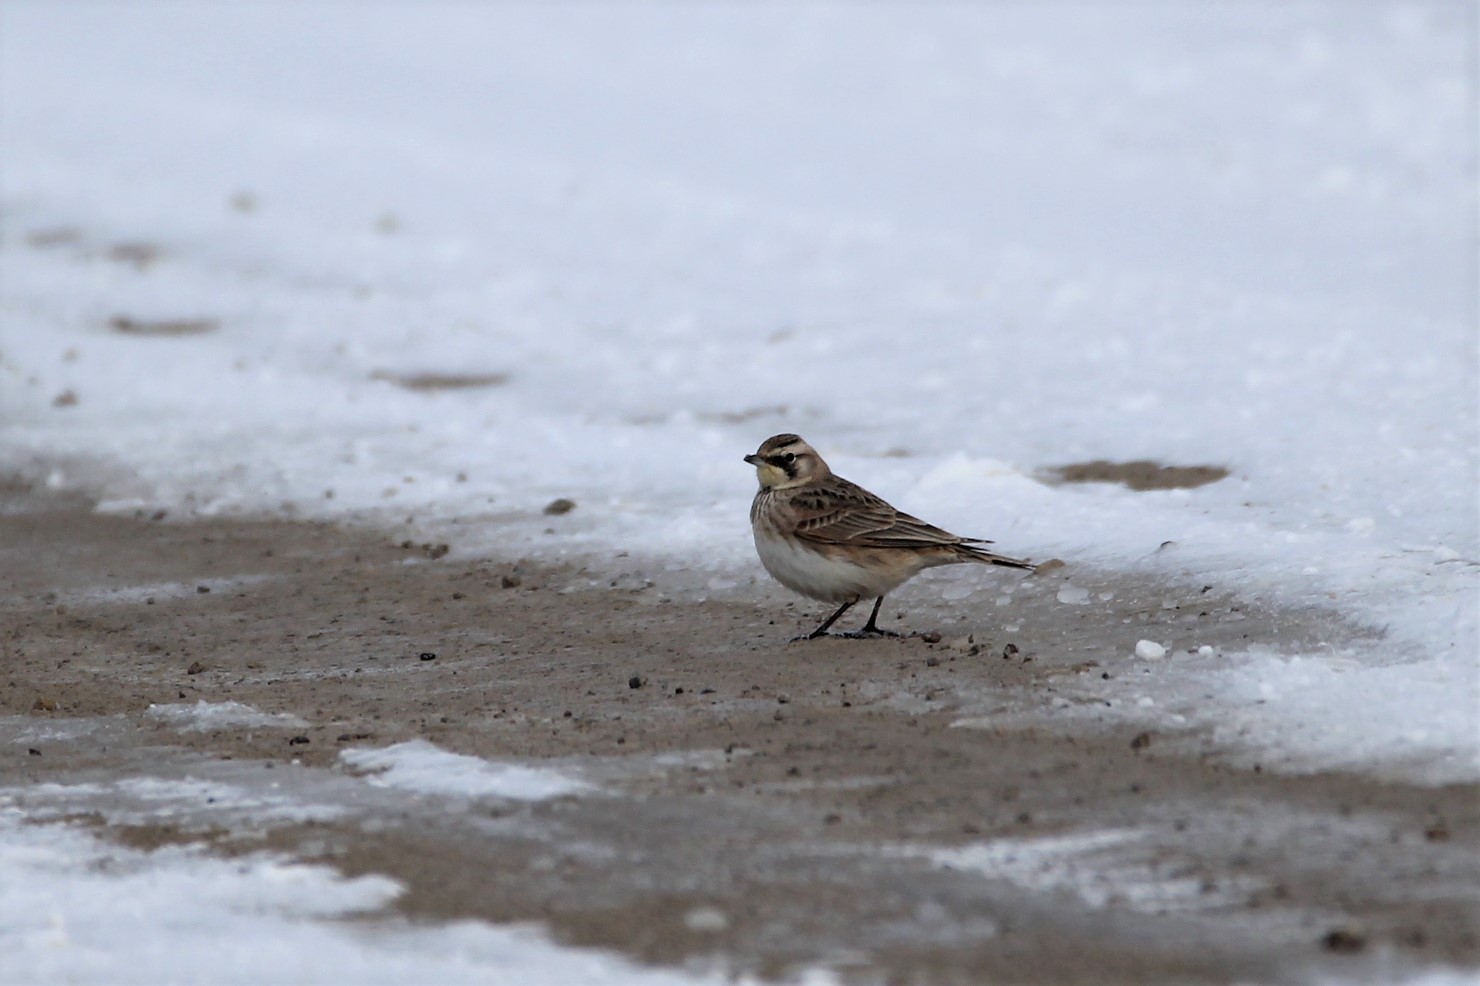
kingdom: Animalia
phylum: Chordata
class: Aves
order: Passeriformes
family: Alaudidae
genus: Eremophila
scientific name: Eremophila alpestris
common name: Horned lark
